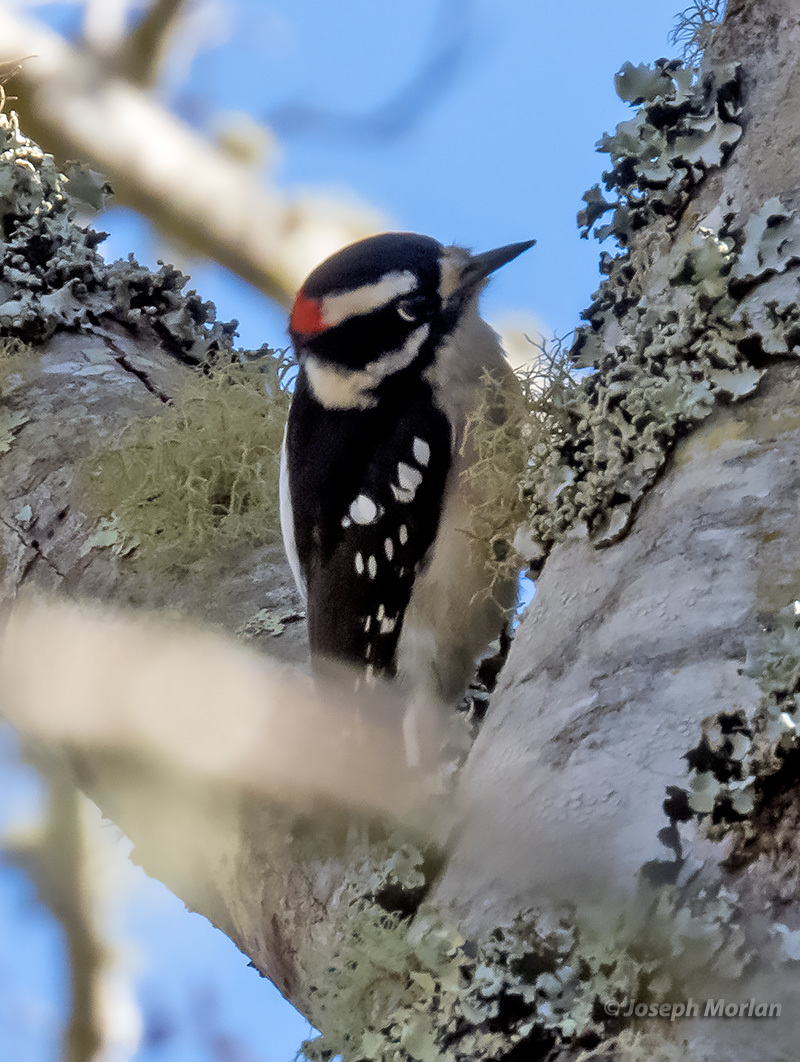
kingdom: Animalia
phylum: Chordata
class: Aves
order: Piciformes
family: Picidae
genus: Dryobates
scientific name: Dryobates pubescens
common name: Downy woodpecker
